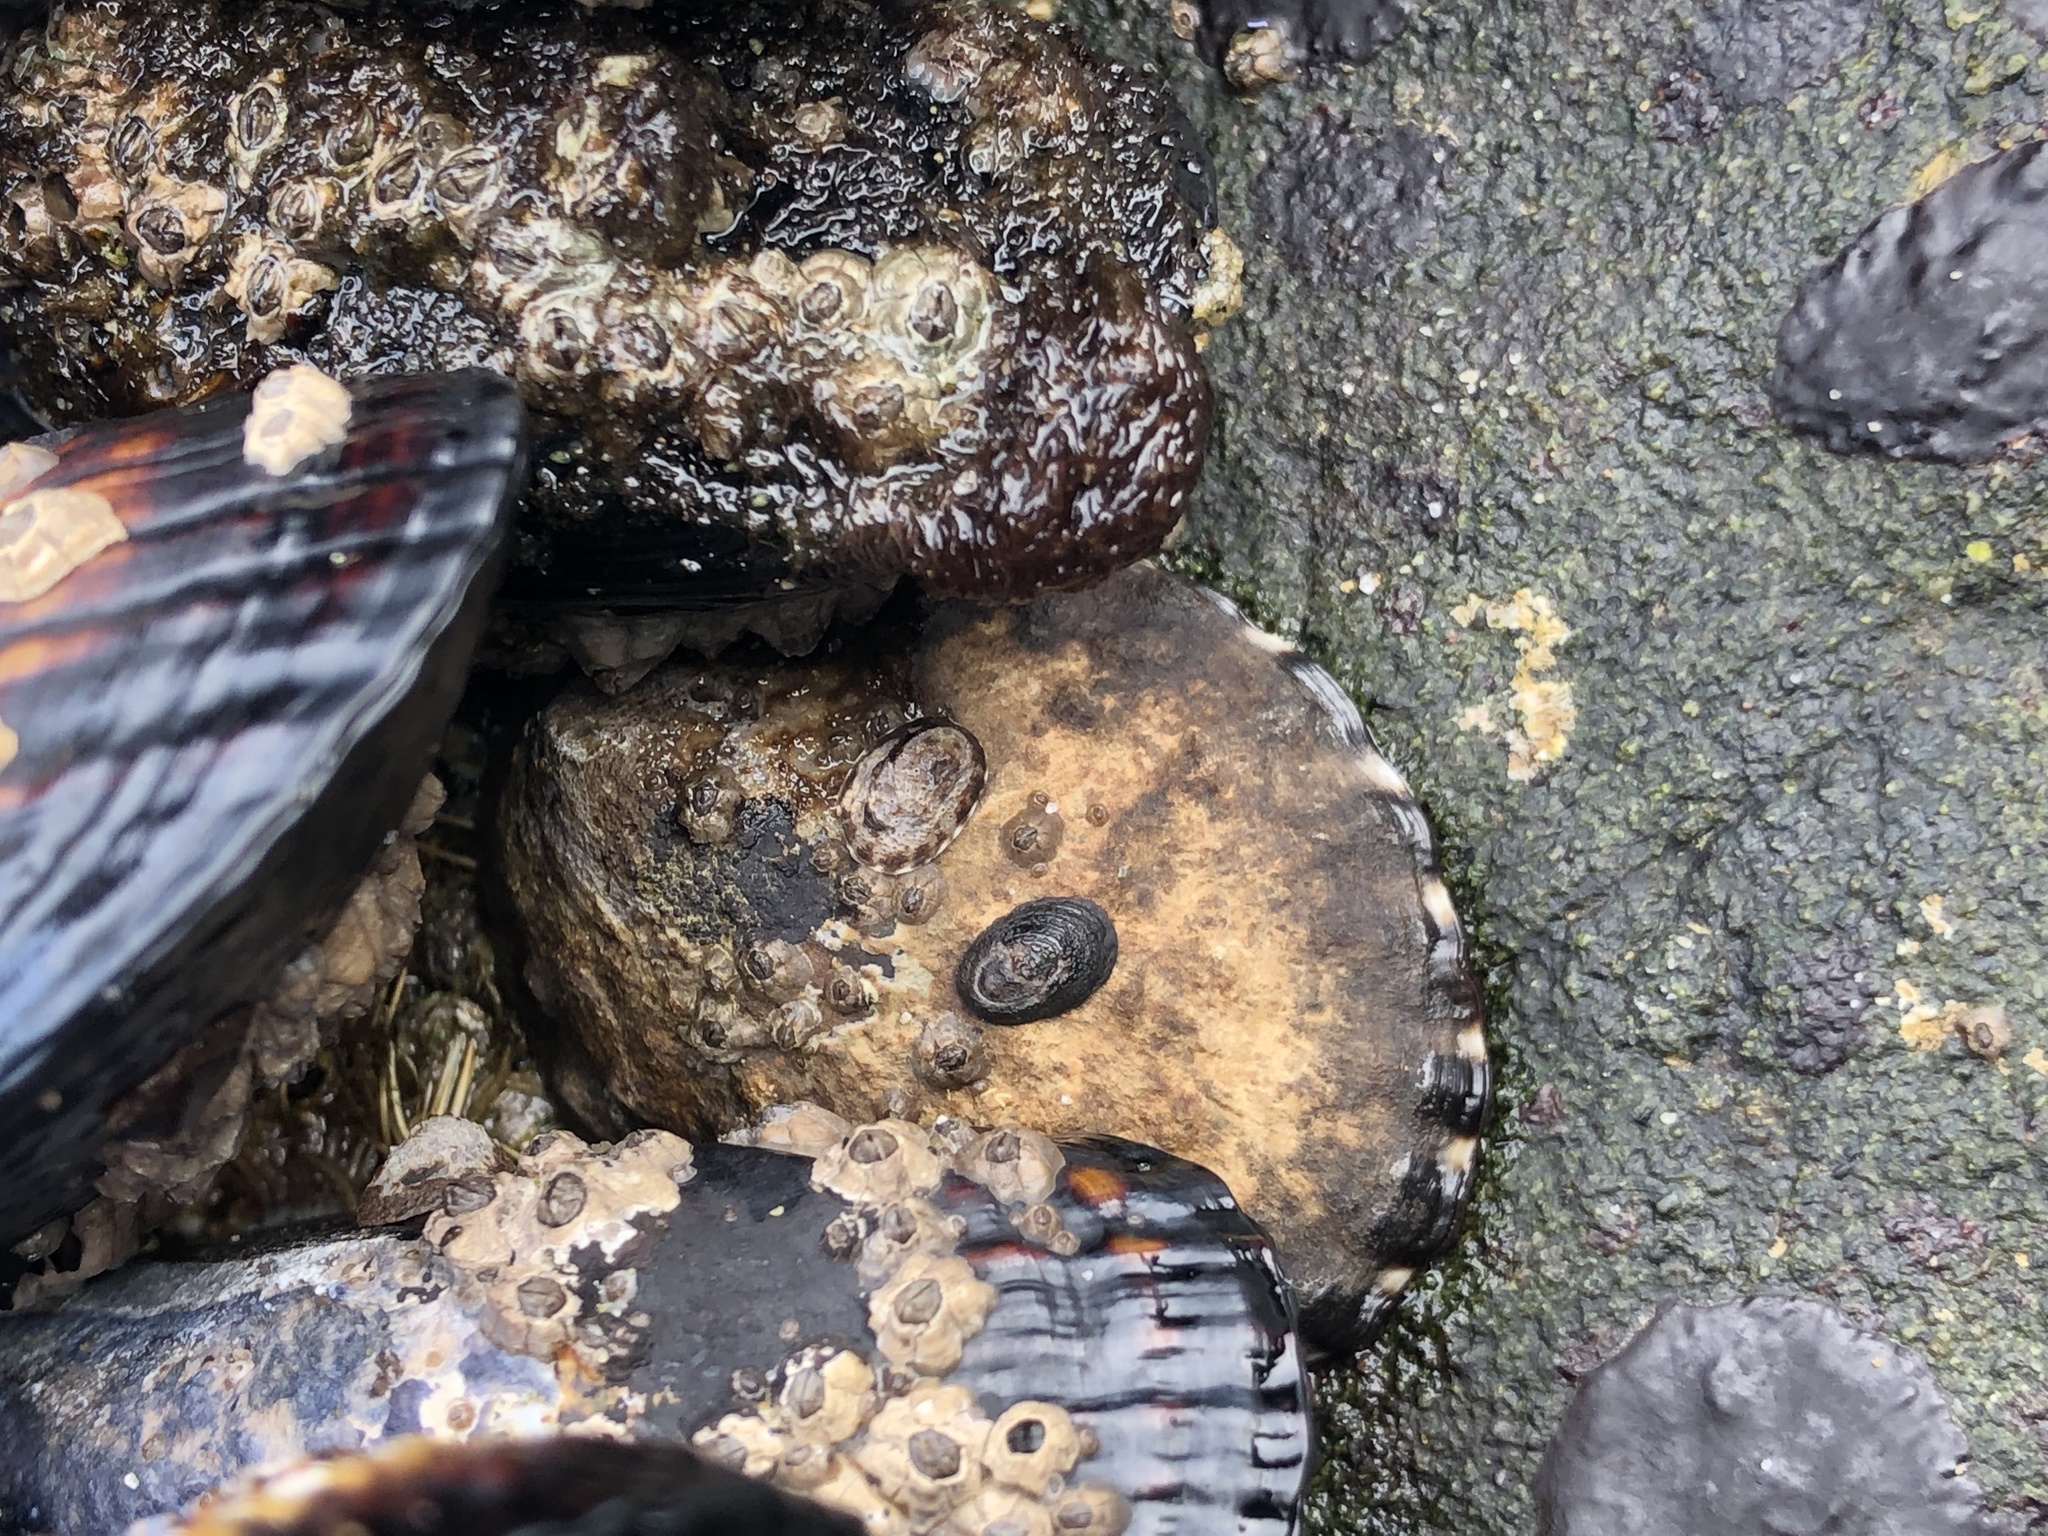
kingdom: Animalia
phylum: Mollusca
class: Gastropoda
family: Lottiidae
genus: Lottia
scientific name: Lottia gigantea
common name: Owl limpet
